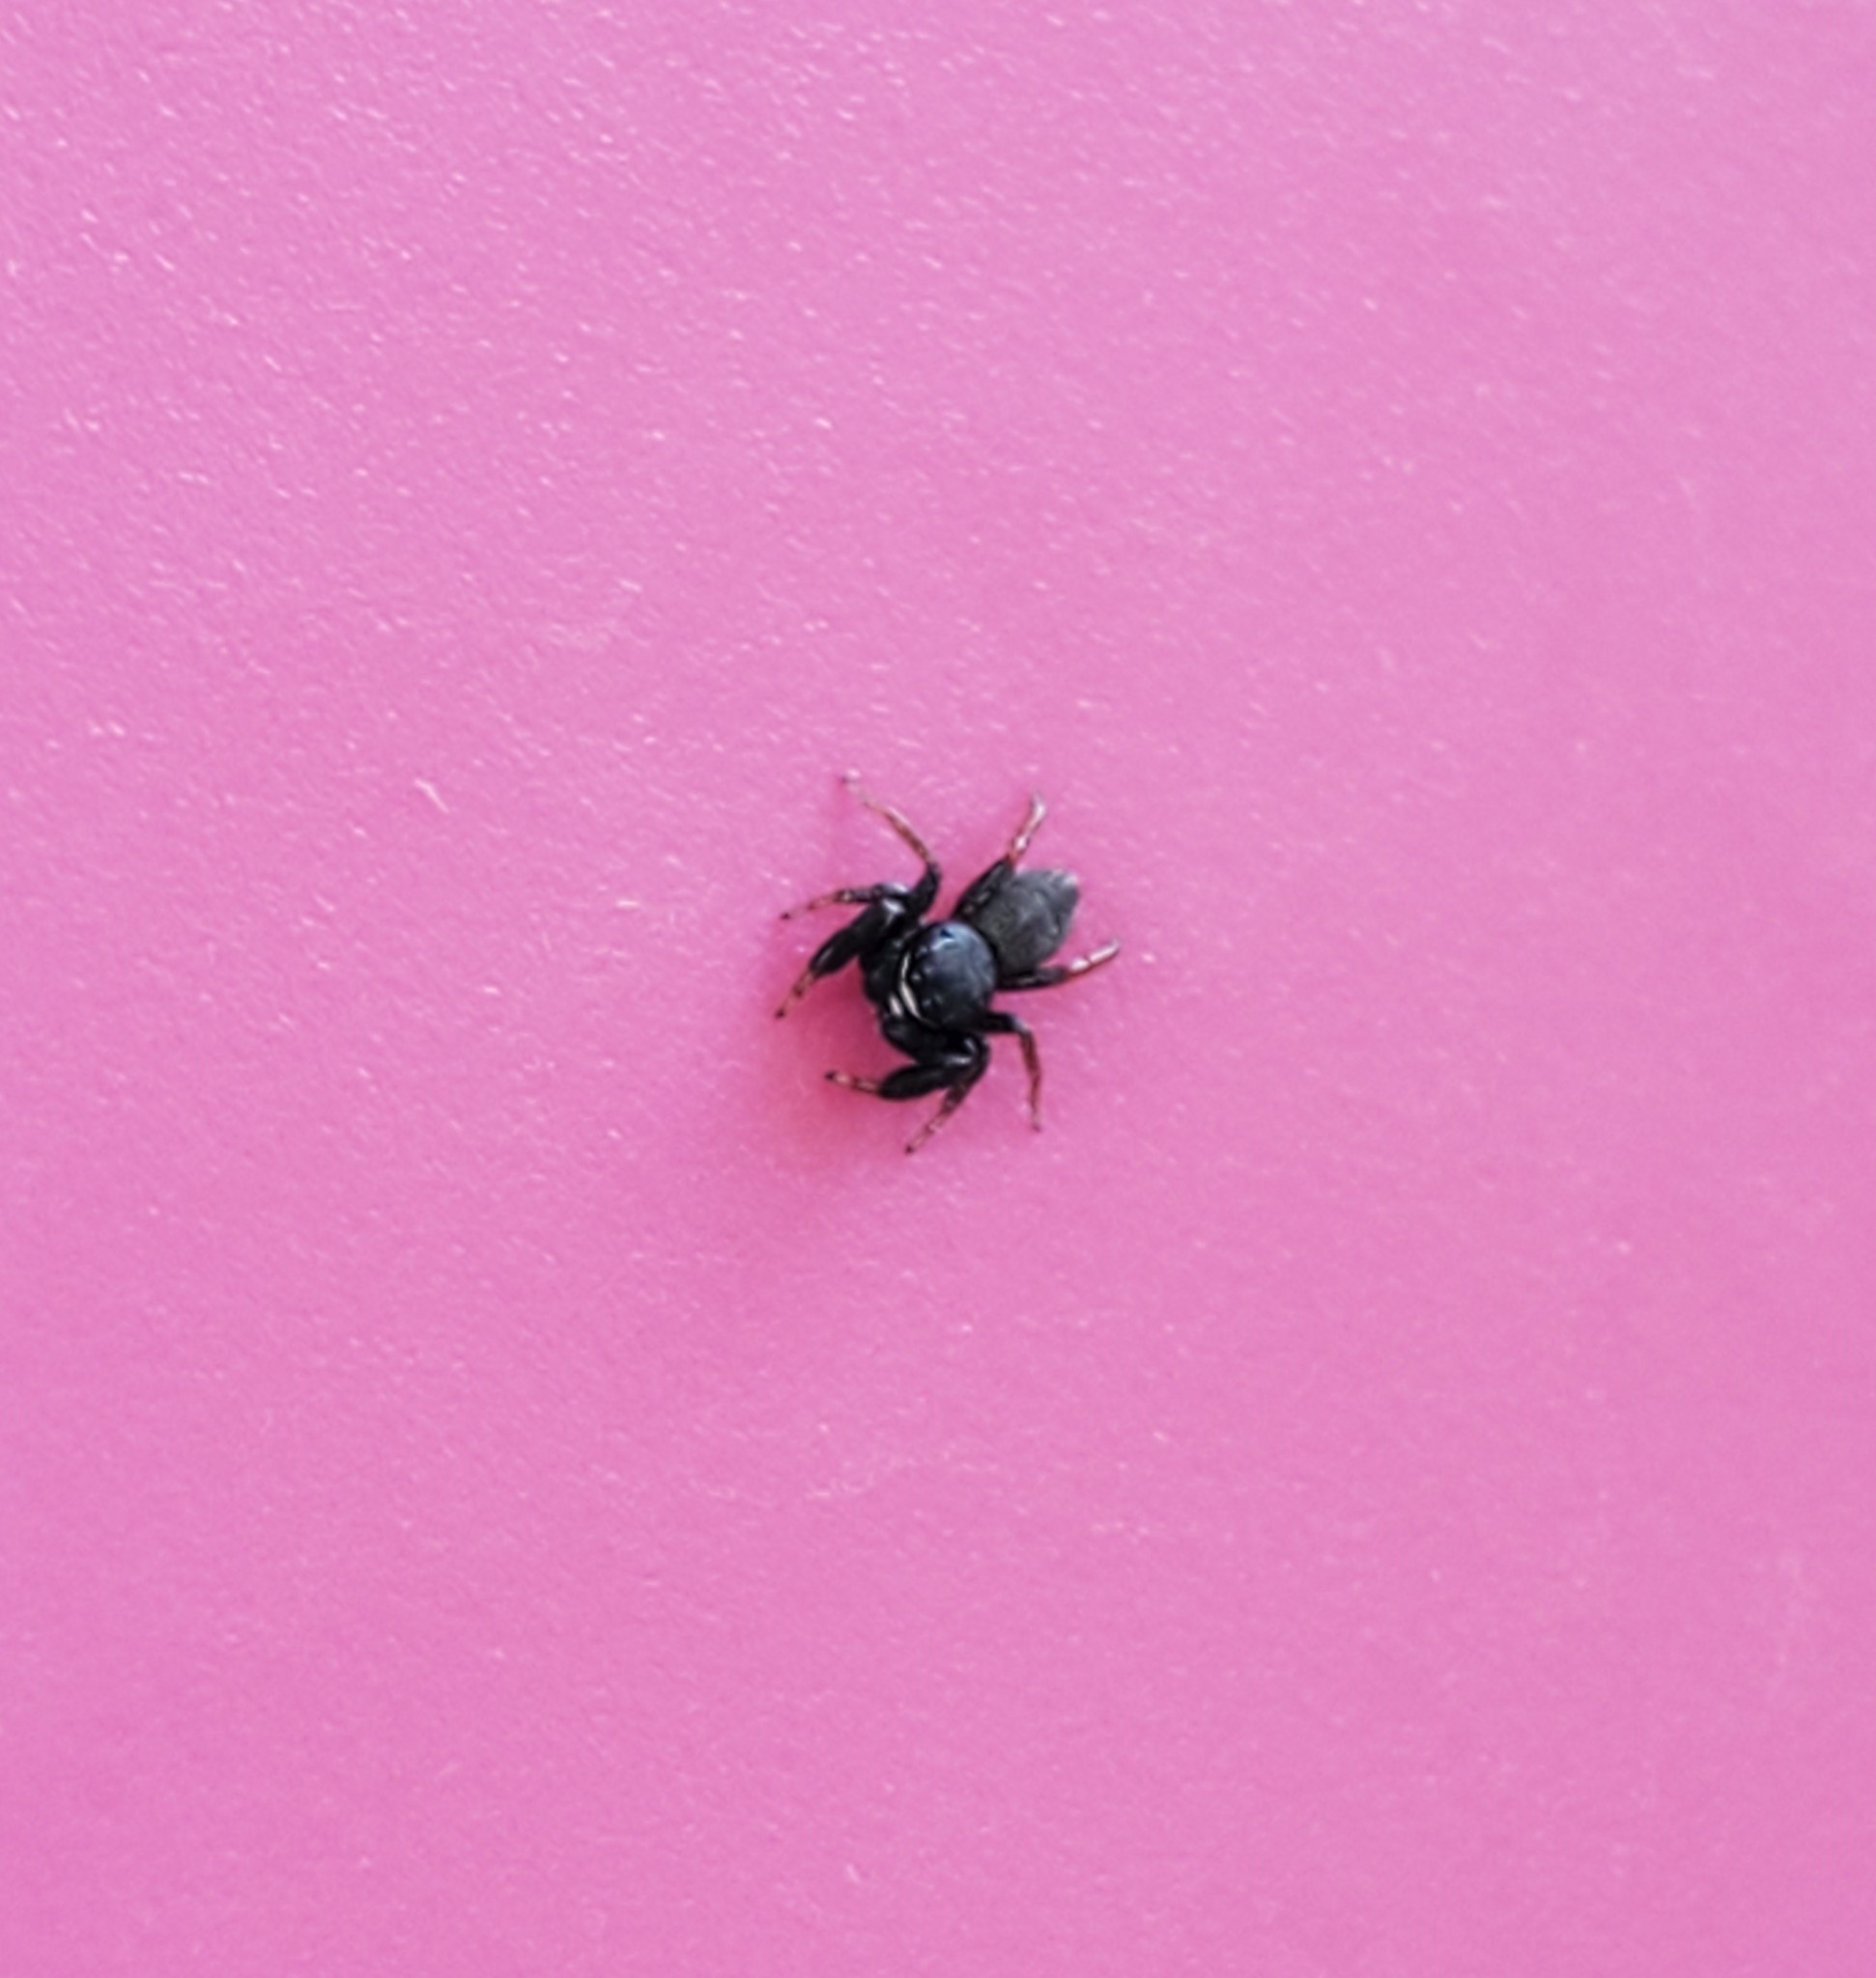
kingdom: Animalia
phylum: Arthropoda
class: Arachnida
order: Araneae
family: Salticidae
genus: Metacyrba
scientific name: Metacyrba taeniola
